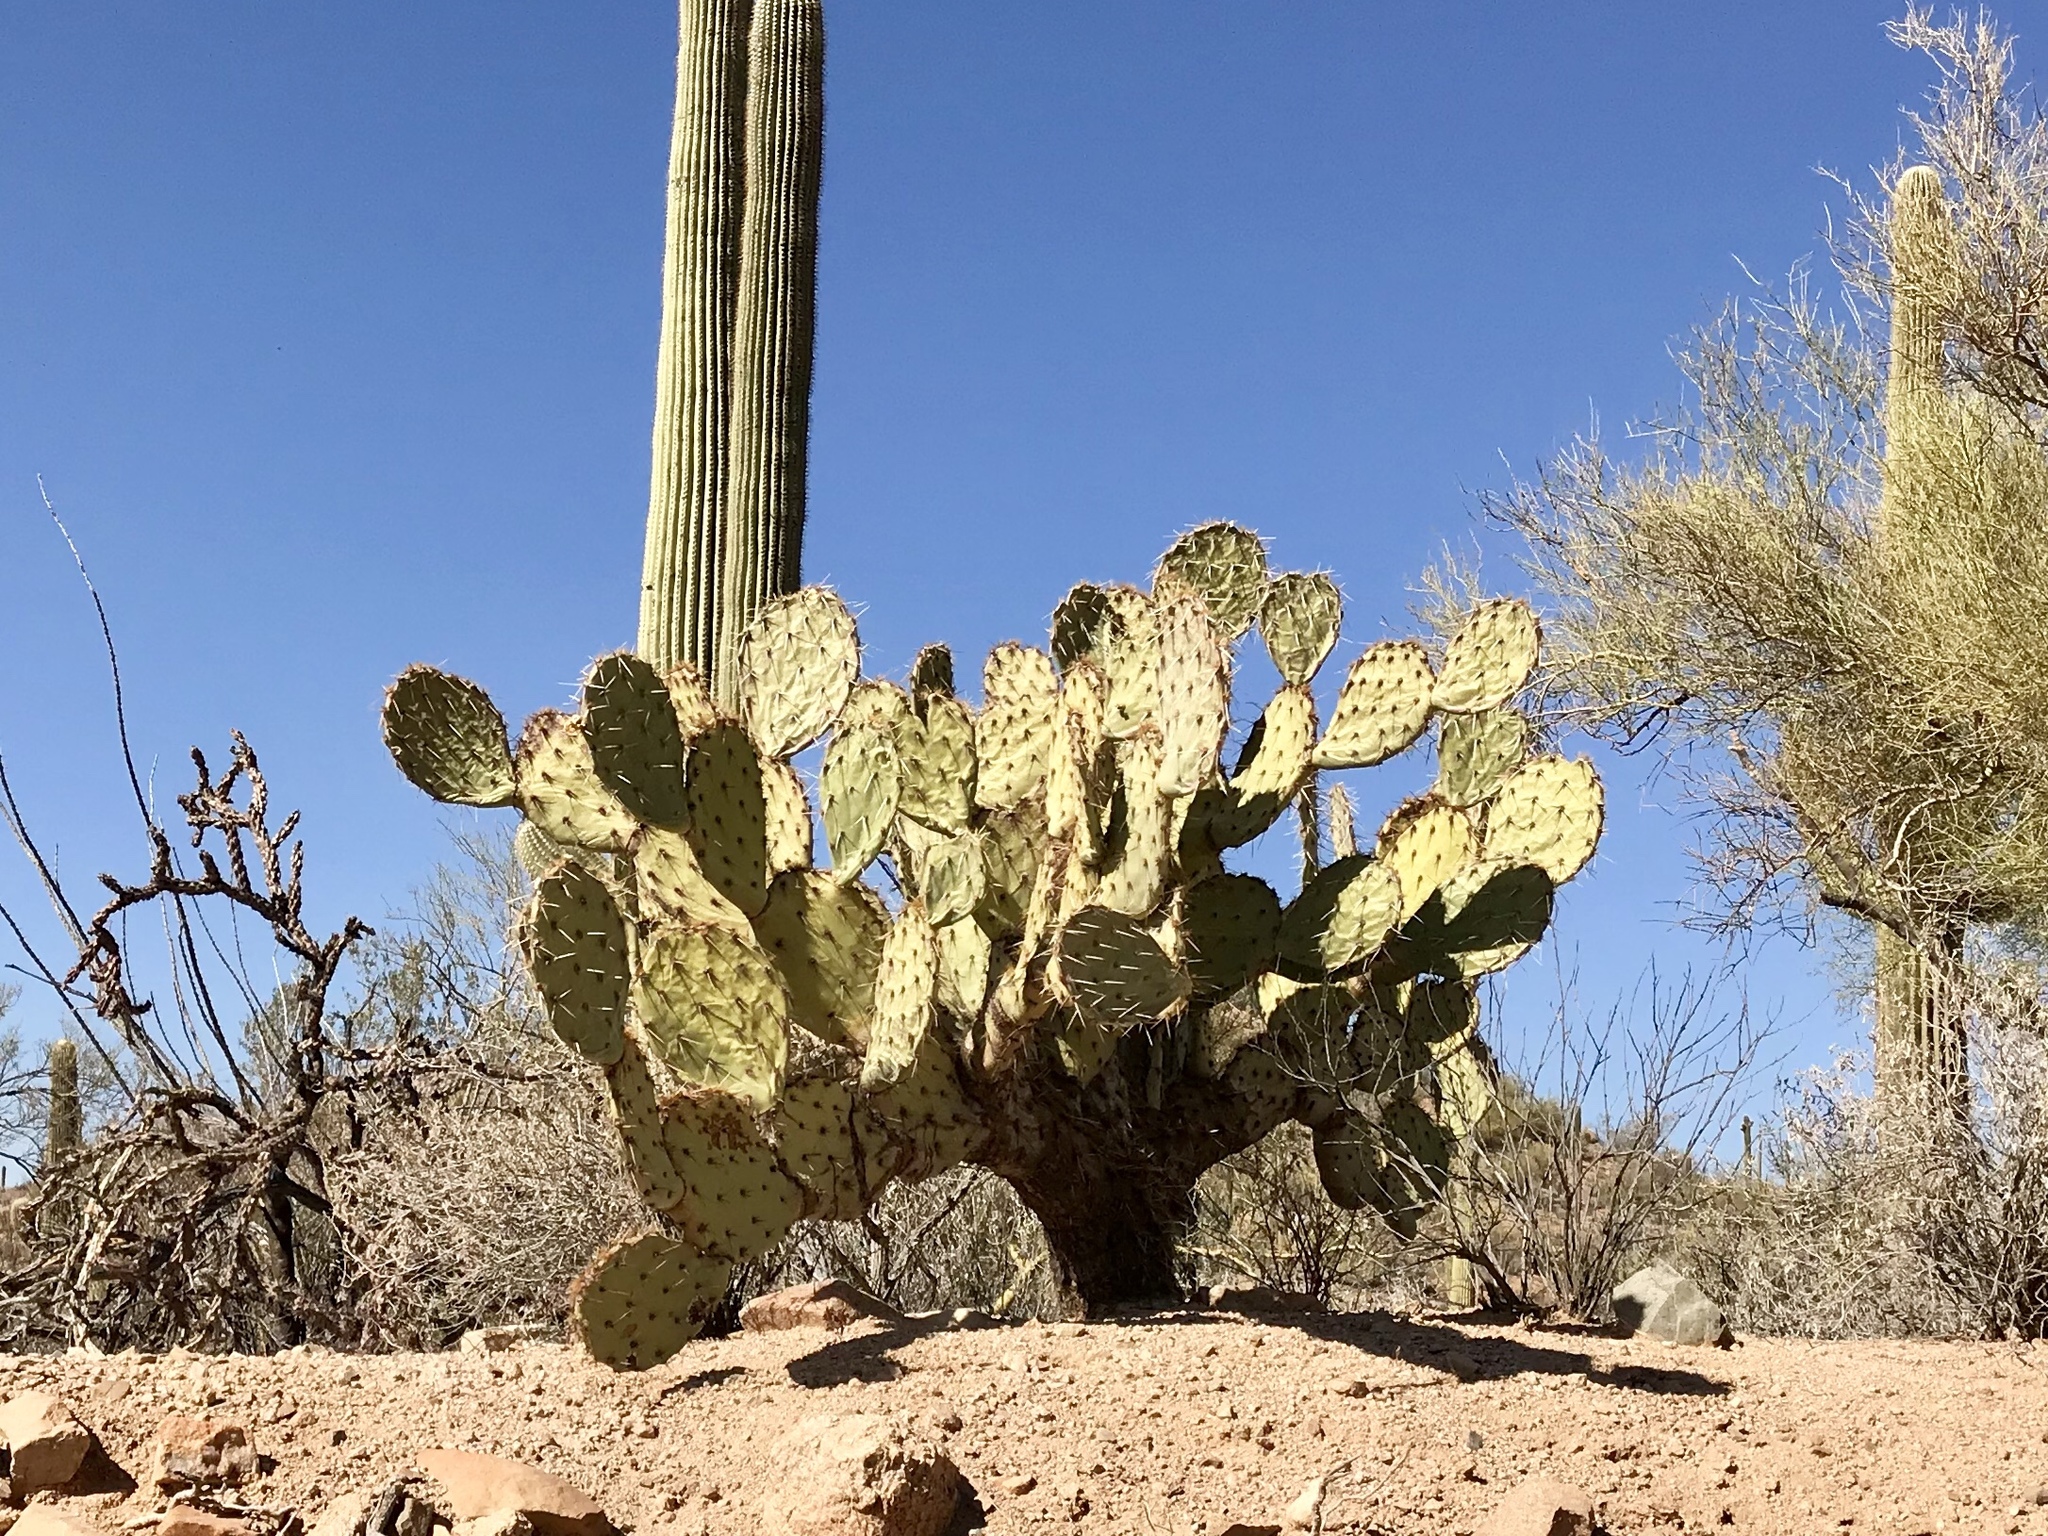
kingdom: Plantae
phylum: Tracheophyta
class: Magnoliopsida
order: Caryophyllales
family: Cactaceae
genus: Opuntia
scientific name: Opuntia engelmannii
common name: Cactus-apple
